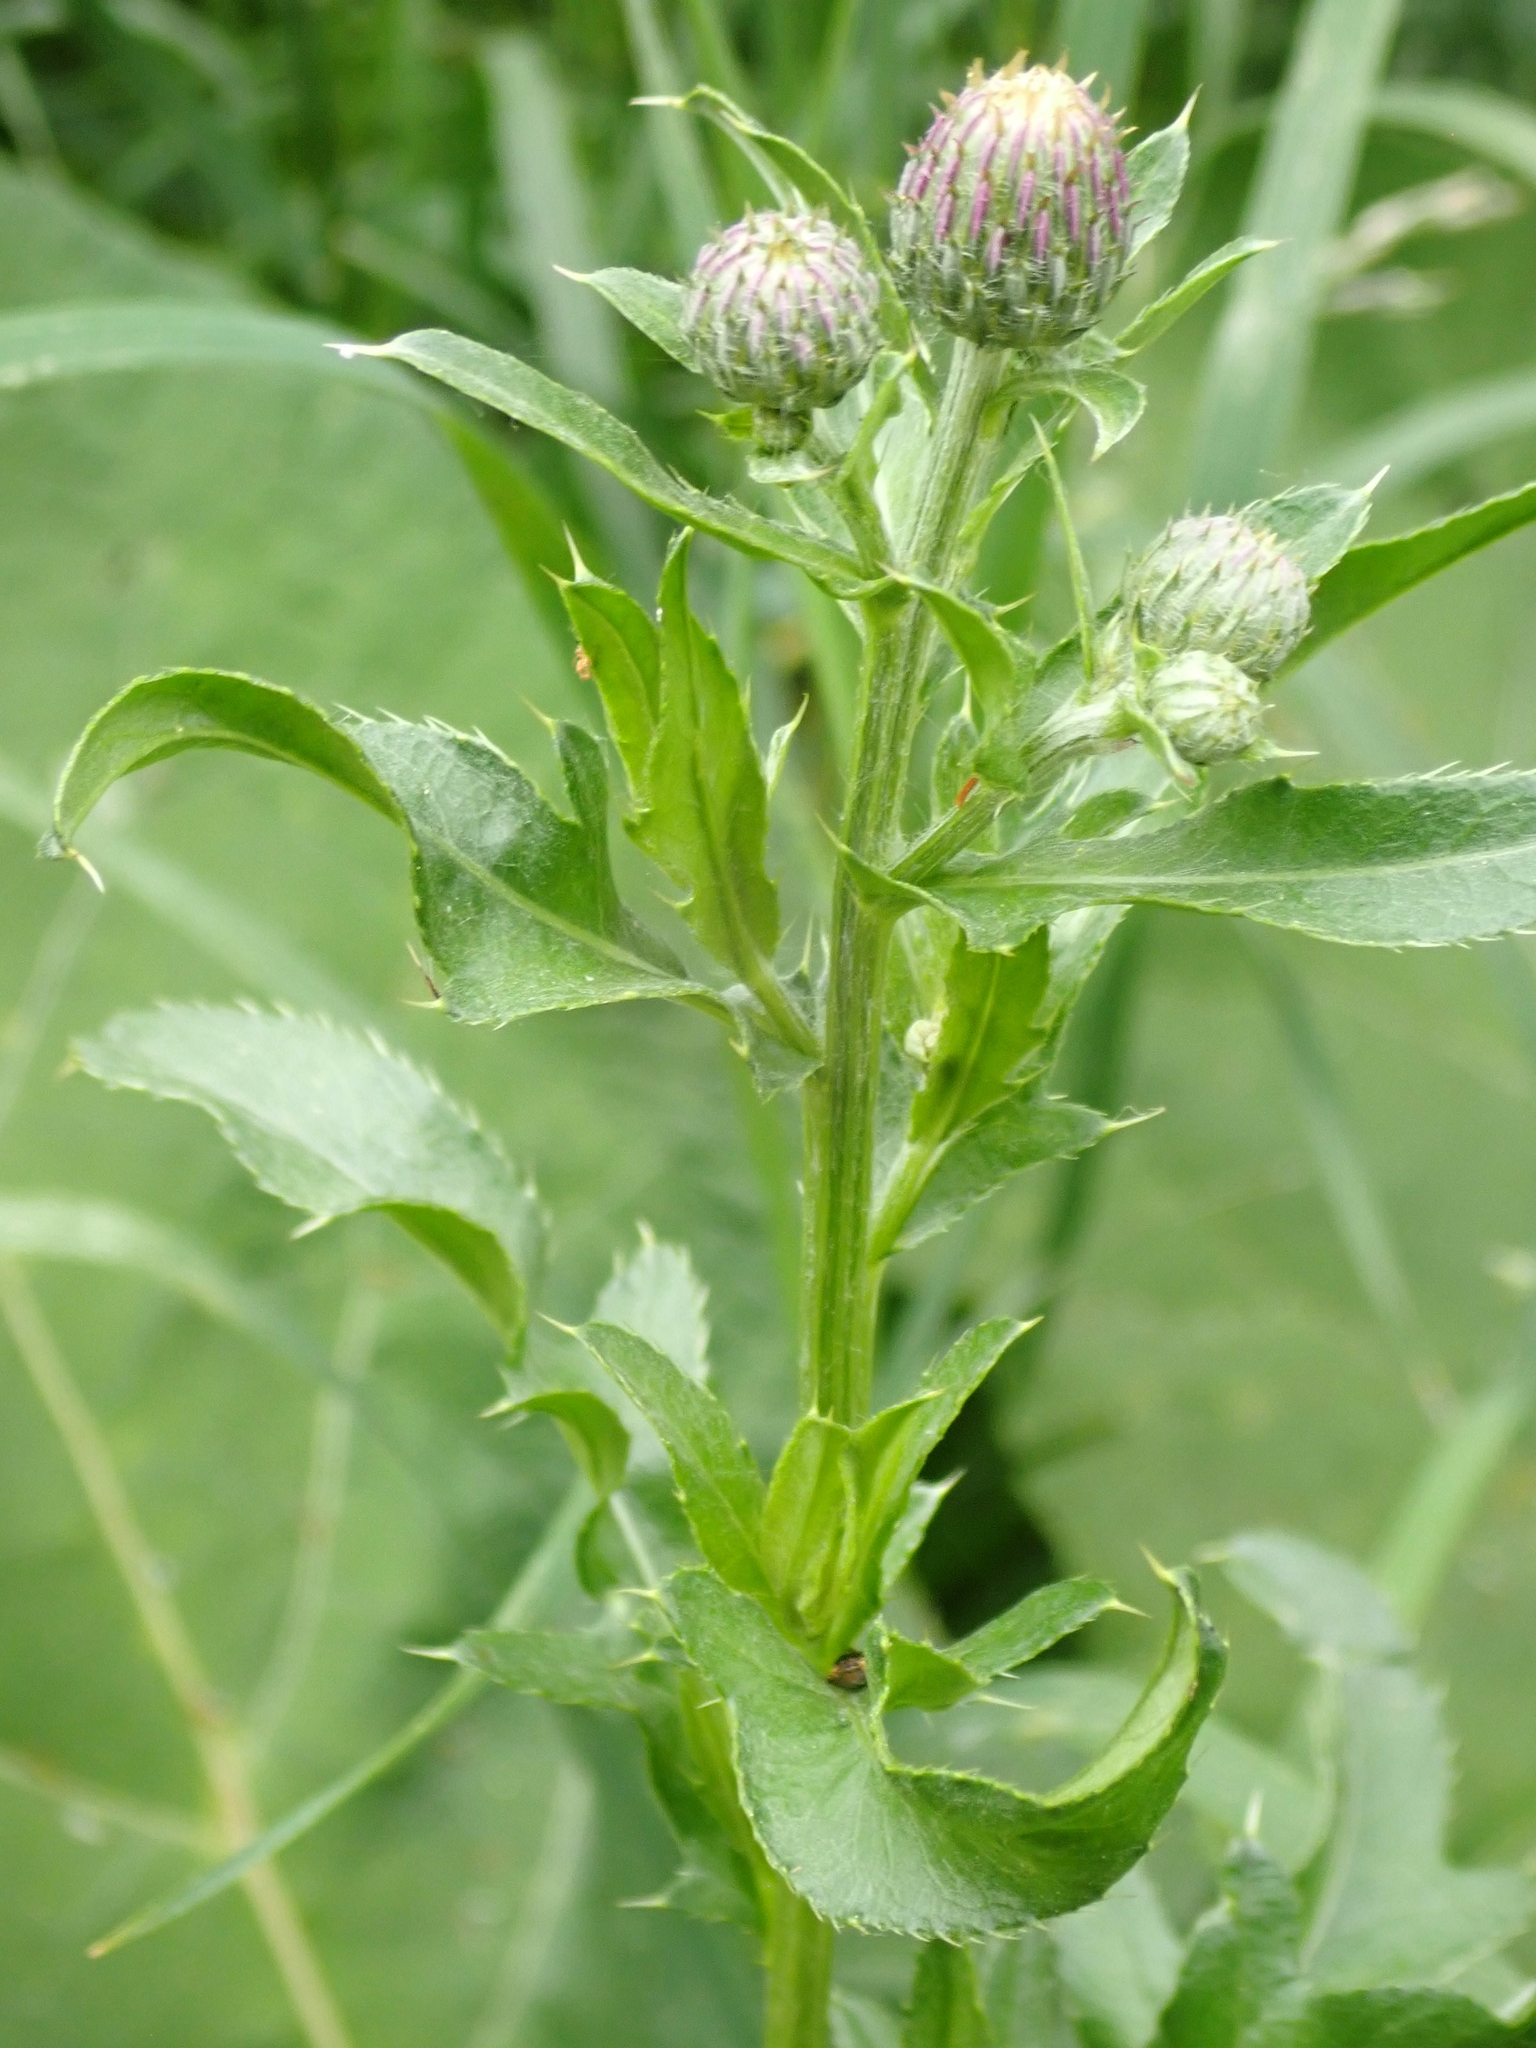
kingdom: Plantae
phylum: Tracheophyta
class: Magnoliopsida
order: Asterales
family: Asteraceae
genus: Cirsium
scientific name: Cirsium arvense
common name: Creeping thistle
